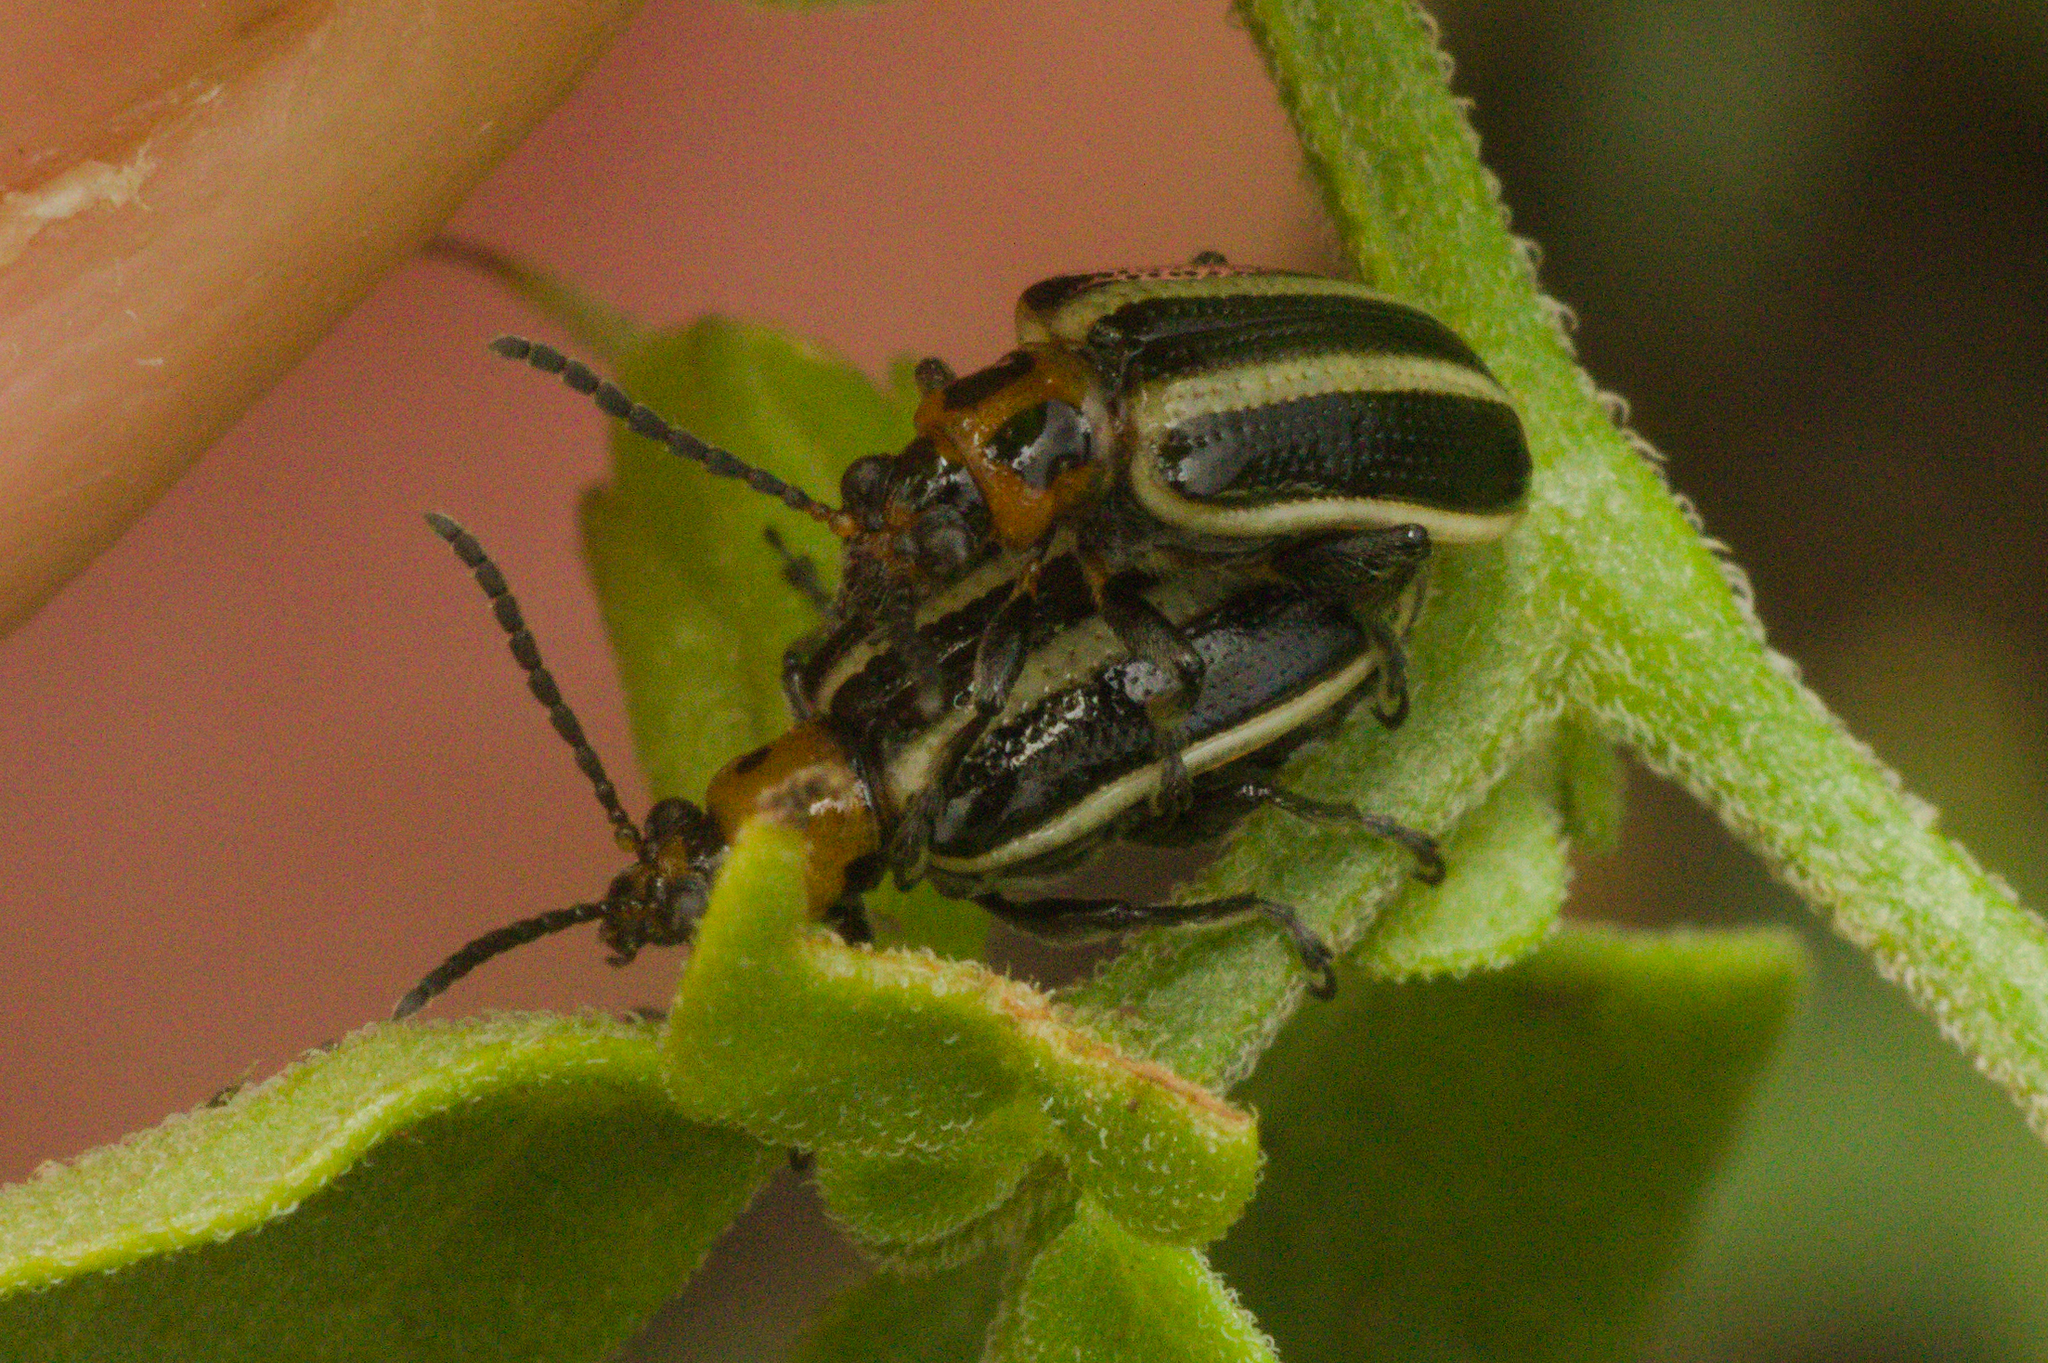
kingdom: Animalia
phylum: Arthropoda
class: Insecta
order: Coleoptera
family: Chrysomelidae
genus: Lema
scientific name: Lema bilineata
